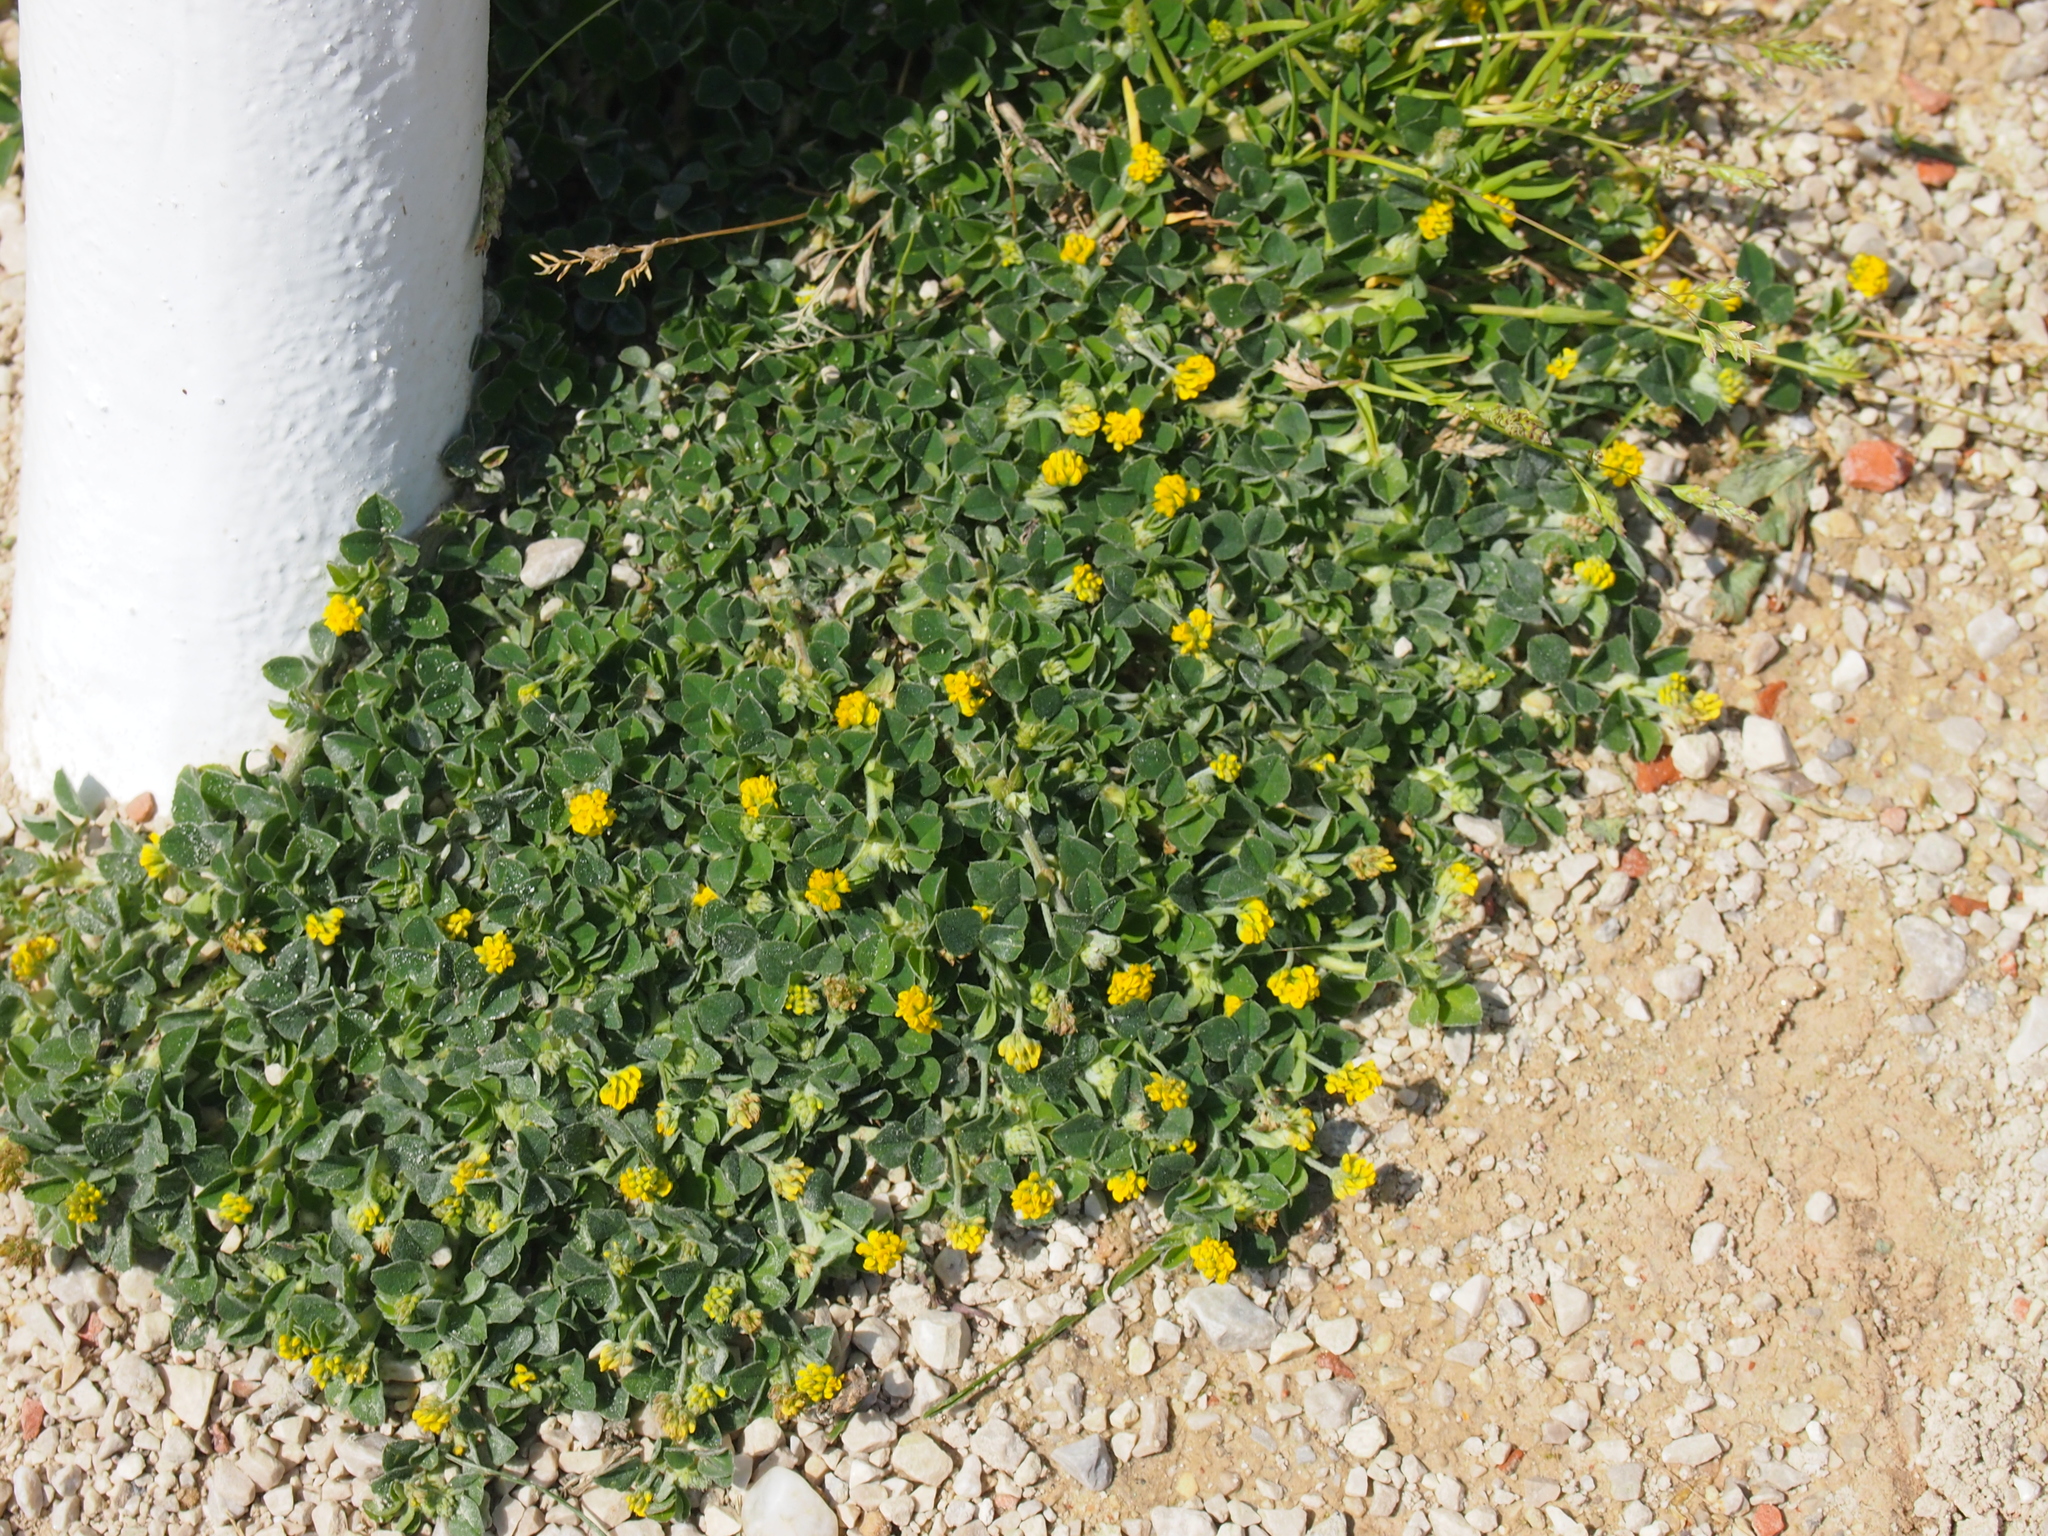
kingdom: Plantae
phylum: Tracheophyta
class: Magnoliopsida
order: Fabales
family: Fabaceae
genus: Medicago
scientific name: Medicago lupulina
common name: Black medick
